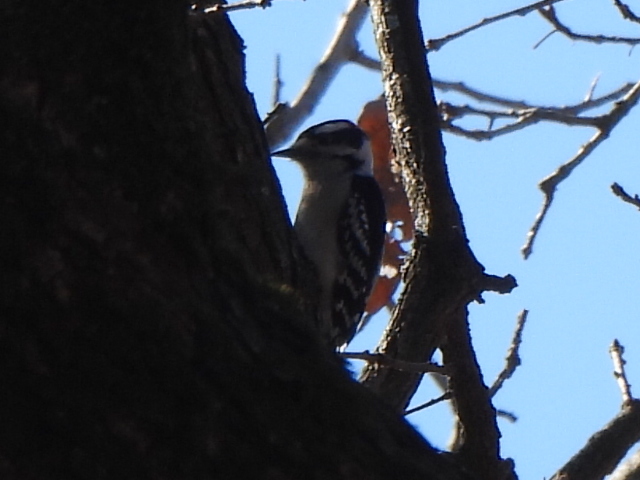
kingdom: Animalia
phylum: Chordata
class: Aves
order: Piciformes
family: Picidae
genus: Dryobates
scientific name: Dryobates pubescens
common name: Downy woodpecker
